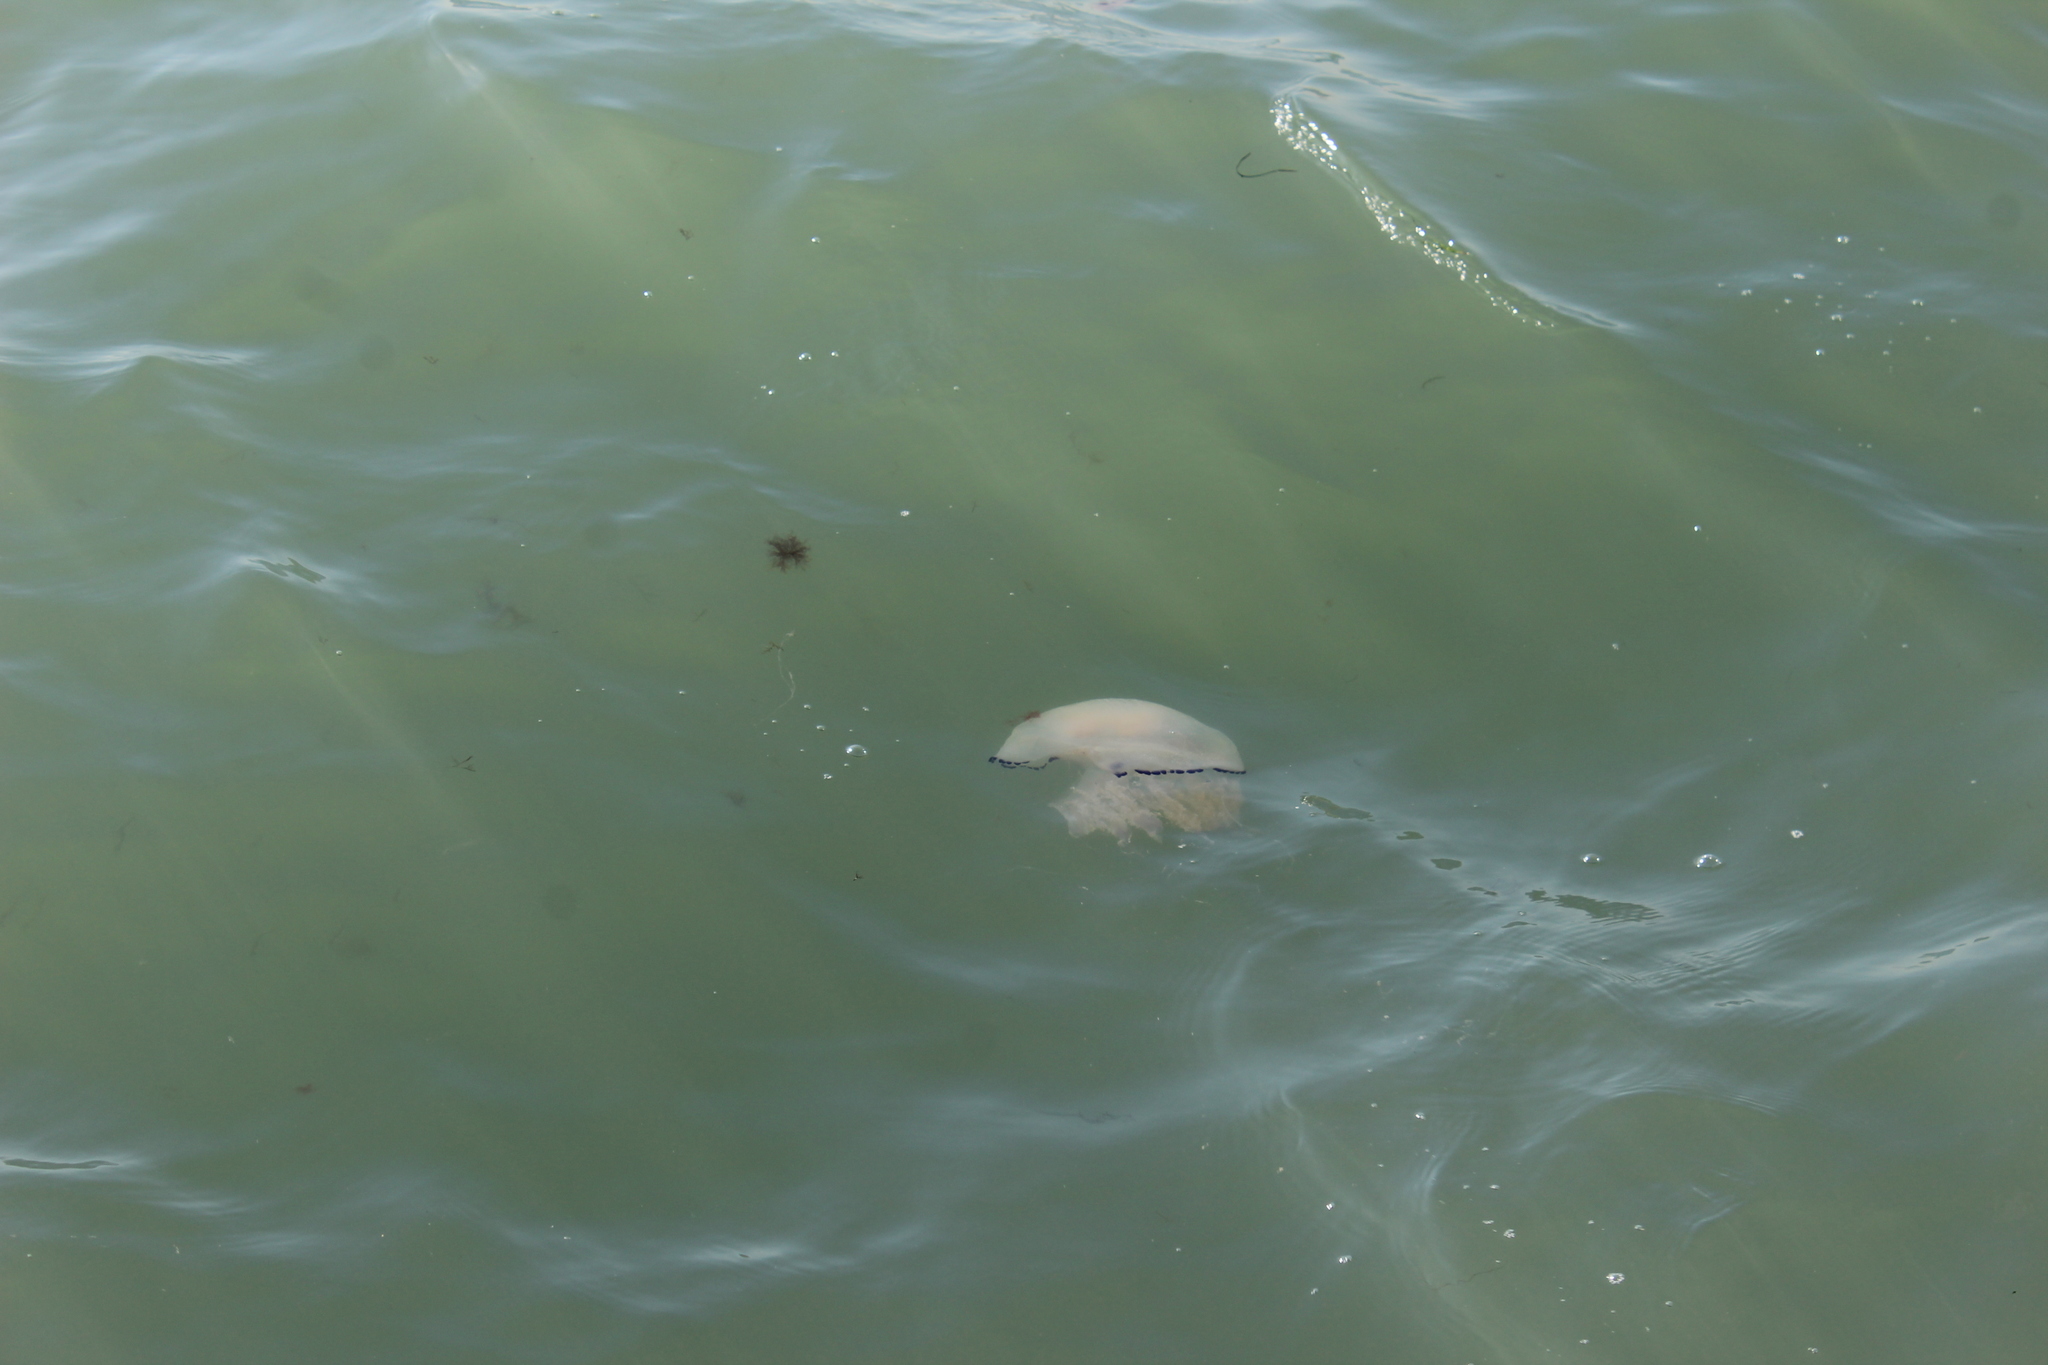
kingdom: Animalia
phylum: Cnidaria
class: Scyphozoa
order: Rhizostomeae
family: Rhizostomatidae
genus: Rhizostoma
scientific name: Rhizostoma pulmo
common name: Barrel jellyfish
